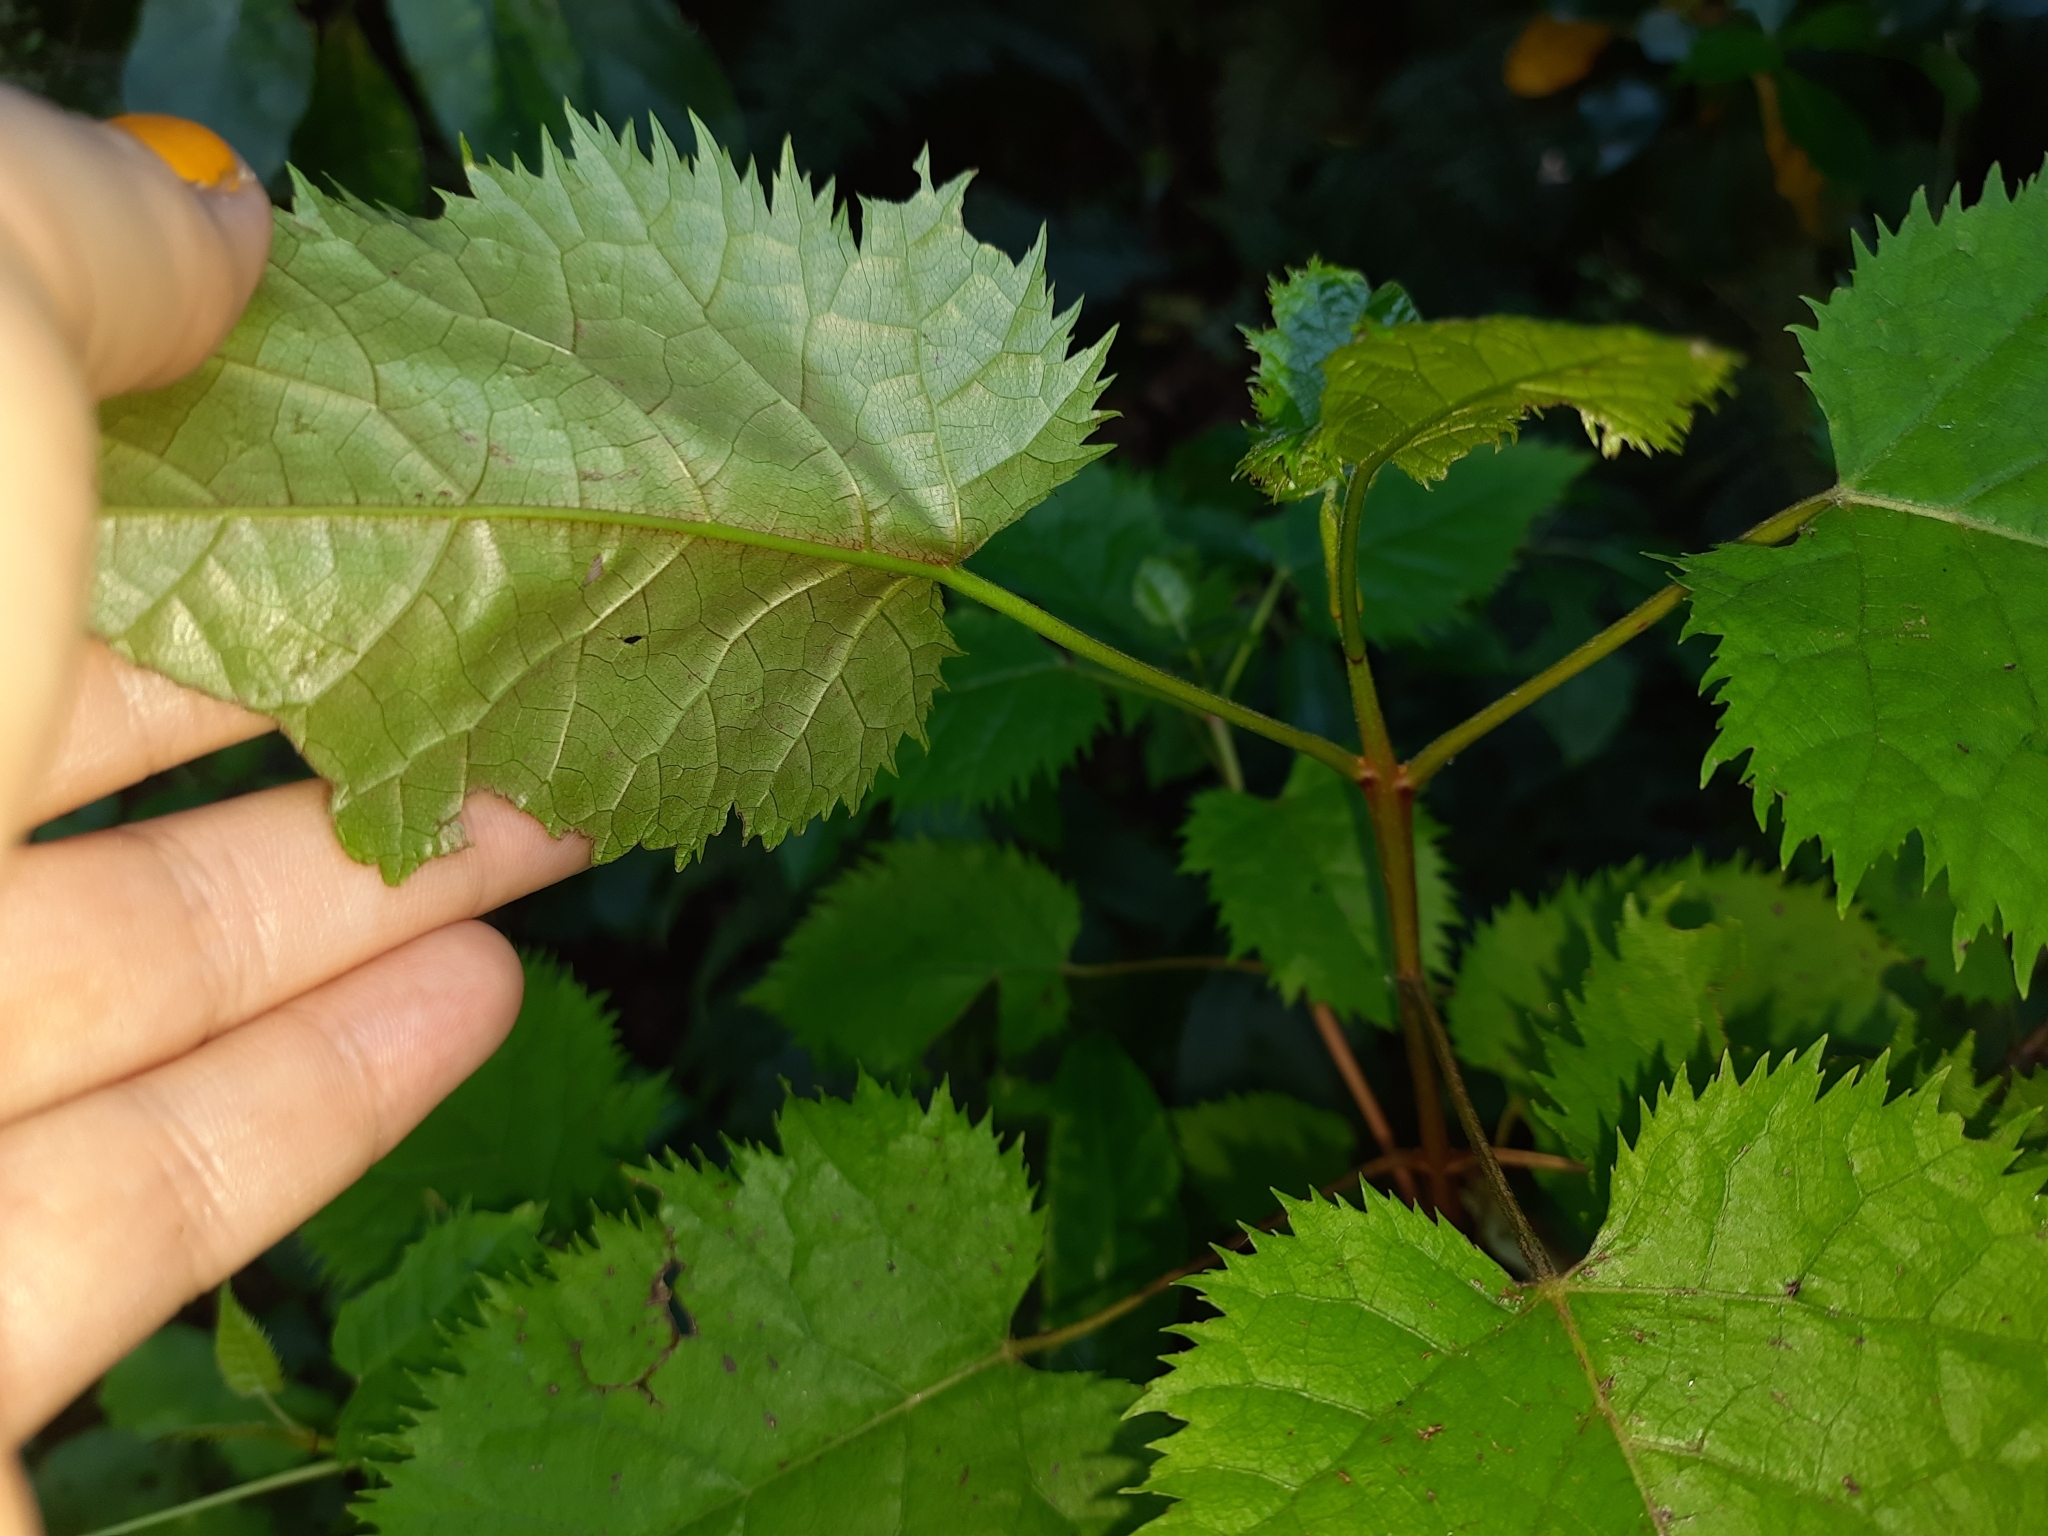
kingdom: Plantae
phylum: Tracheophyta
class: Magnoliopsida
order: Oxalidales
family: Elaeocarpaceae
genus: Aristotelia
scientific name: Aristotelia serrata
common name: New zealand wineberry
